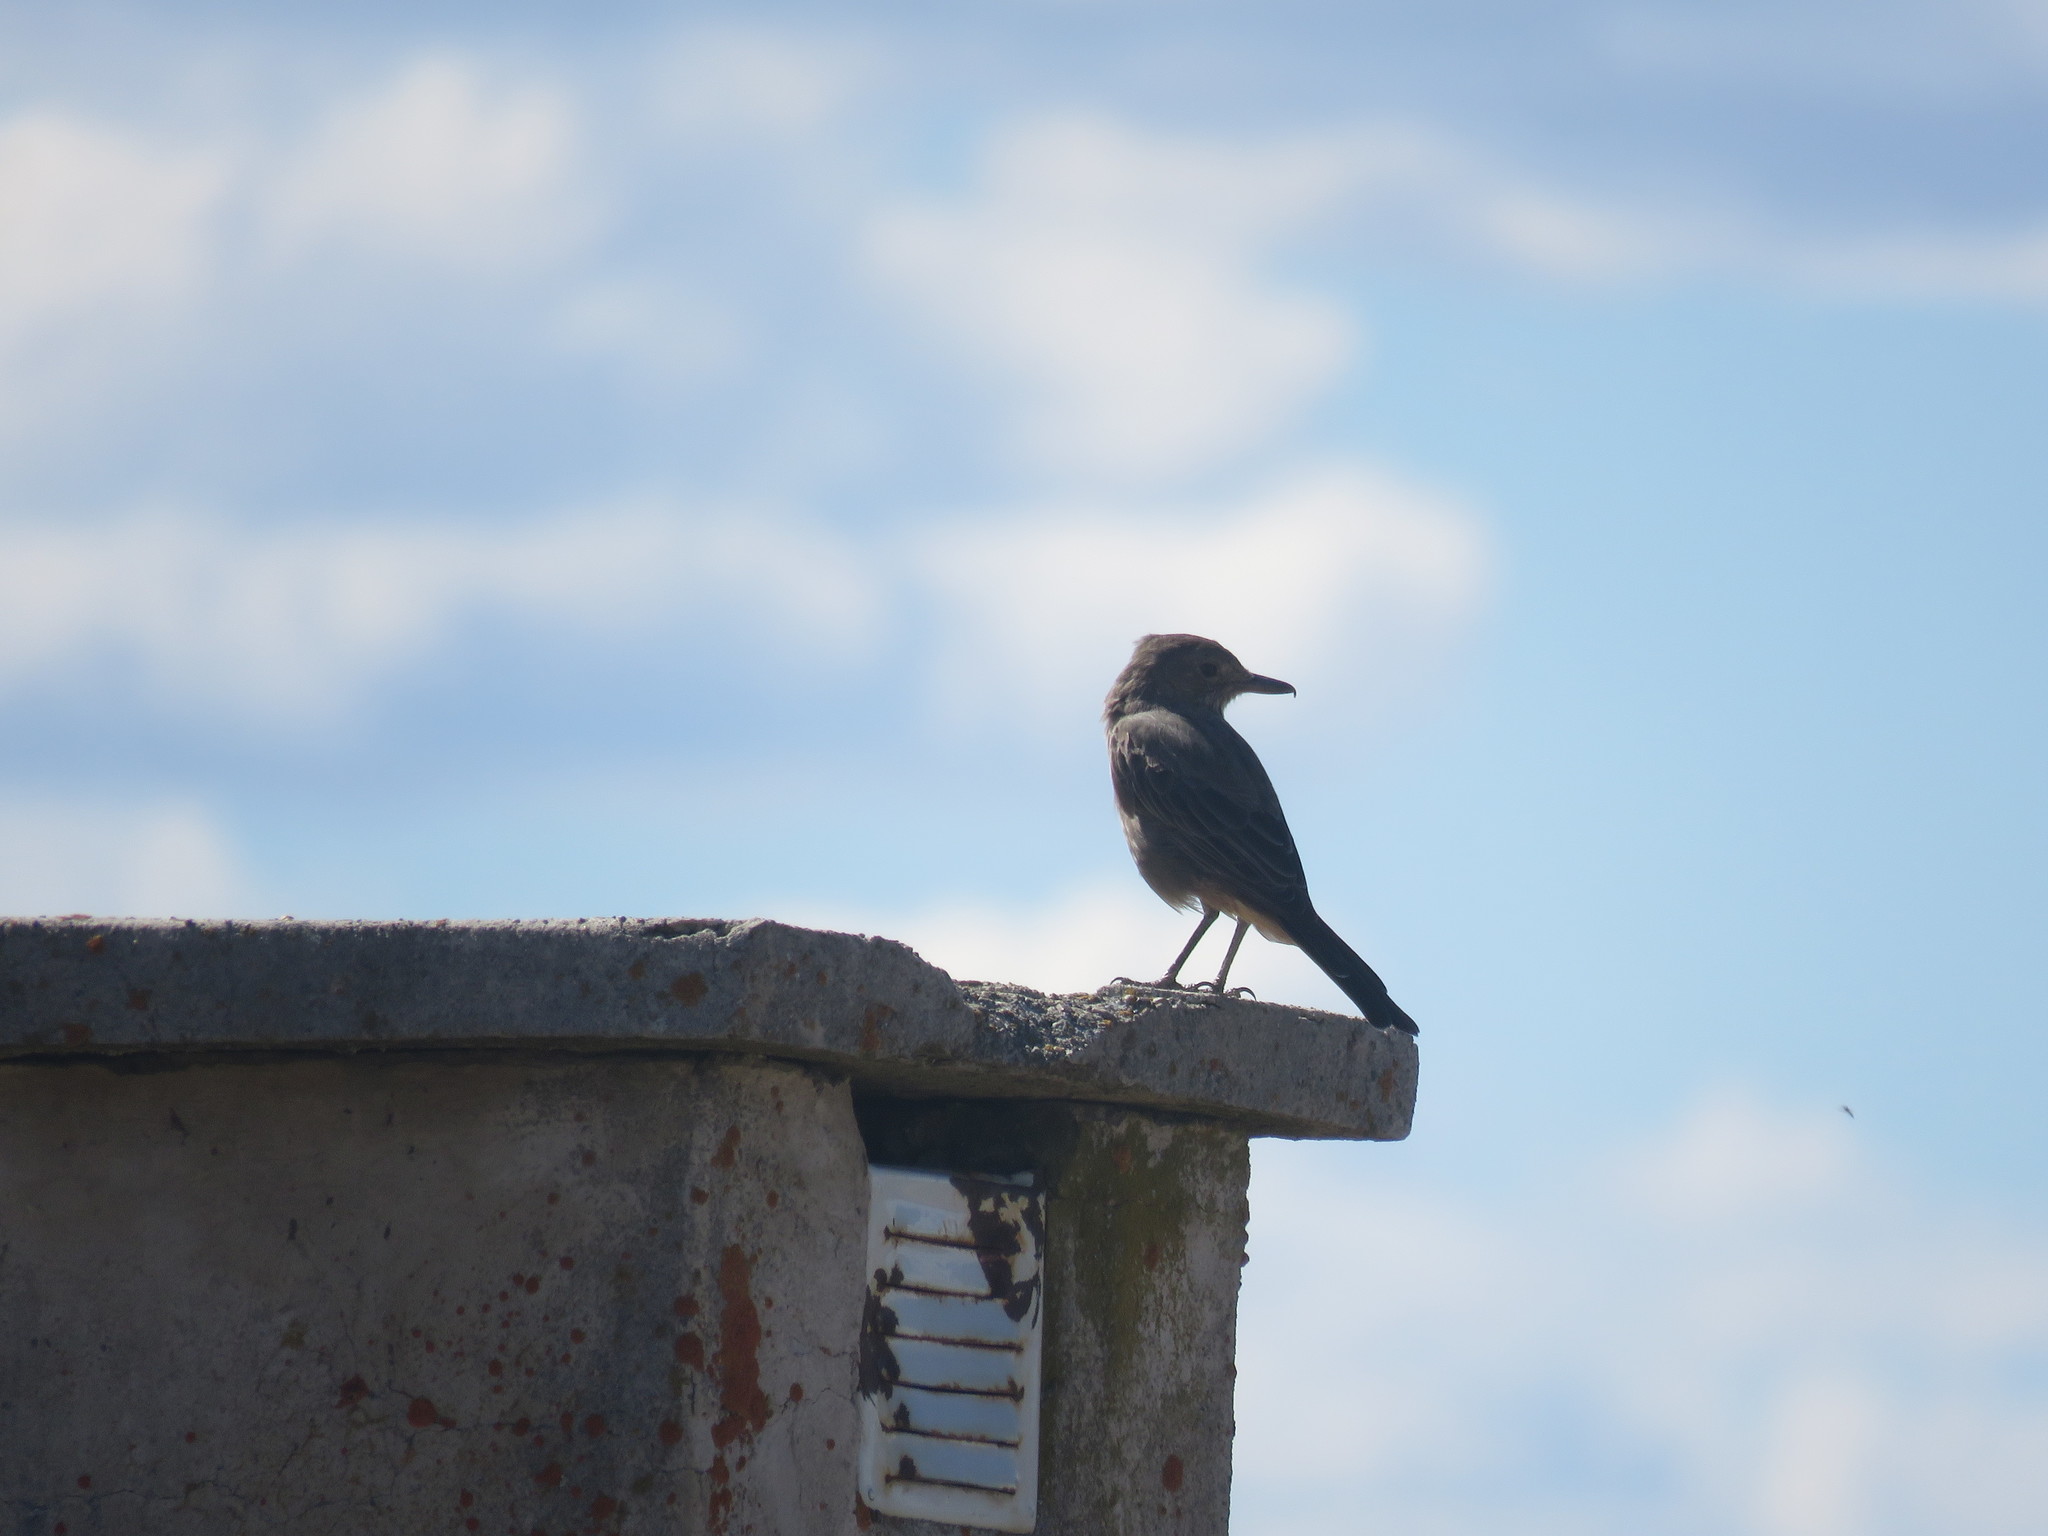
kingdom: Animalia
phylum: Chordata
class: Aves
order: Passeriformes
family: Tyrannidae
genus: Agriornis
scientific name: Agriornis lividus
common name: Great shrike-tyrant
